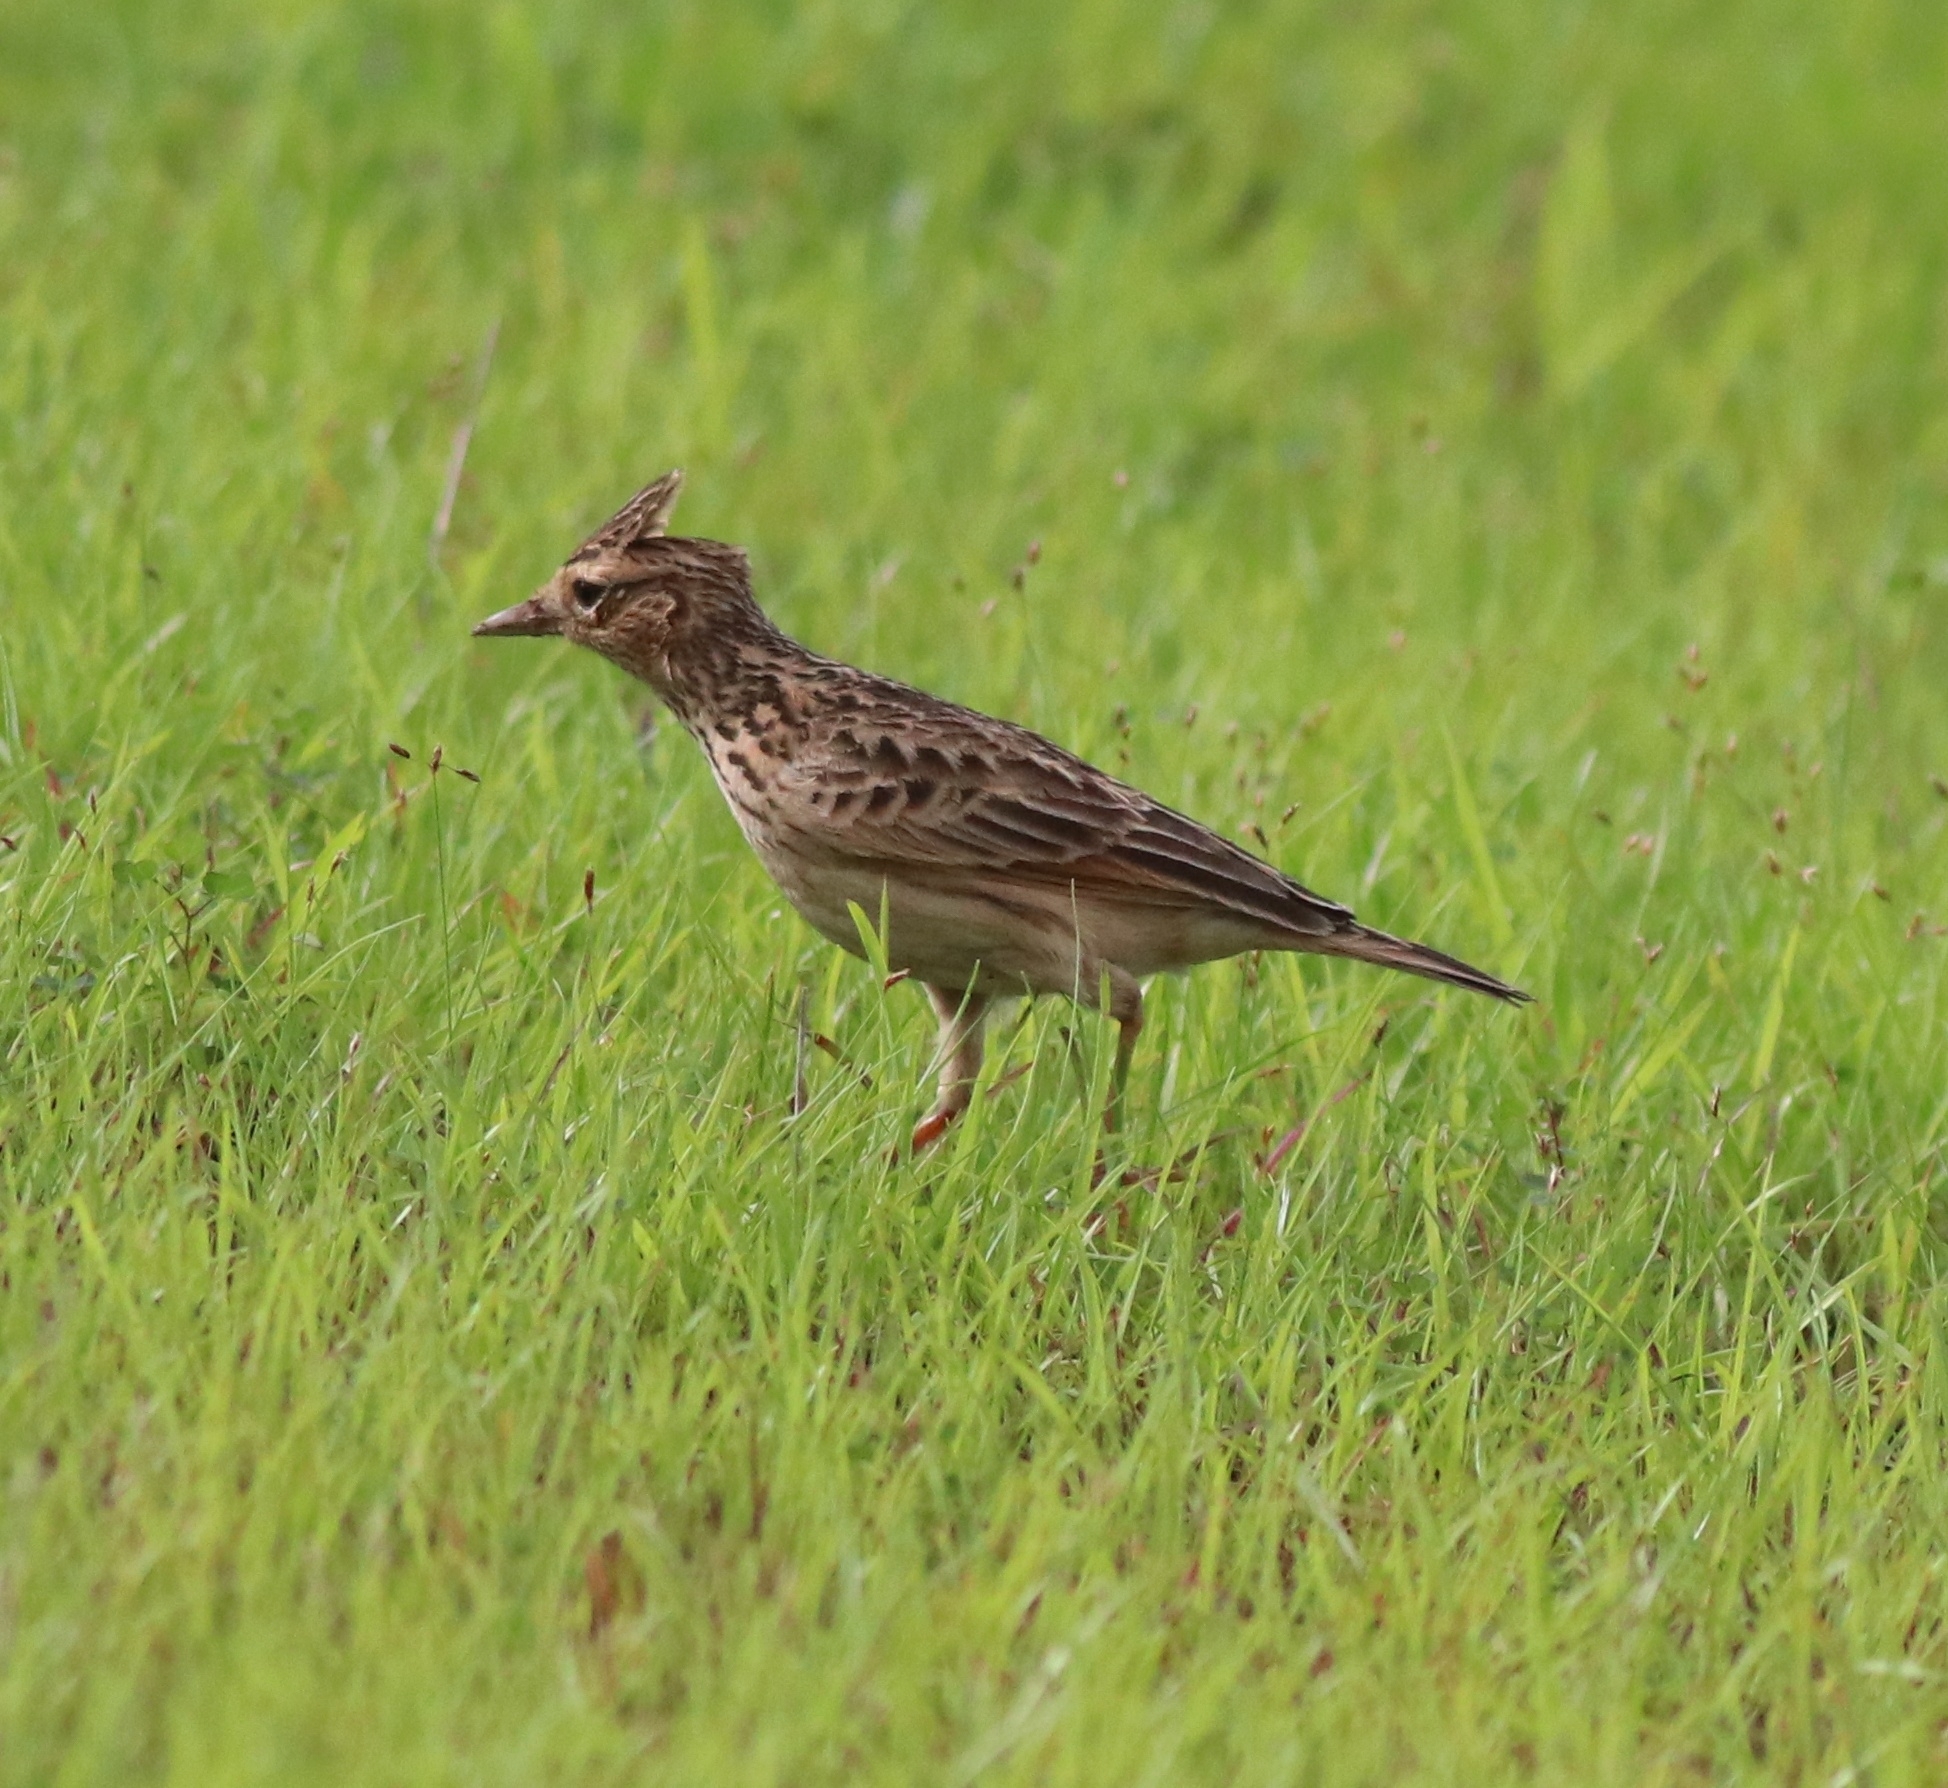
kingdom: Animalia
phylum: Chordata
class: Aves
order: Passeriformes
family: Alaudidae
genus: Alauda
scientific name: Alauda gulgula
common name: Oriental skylark
